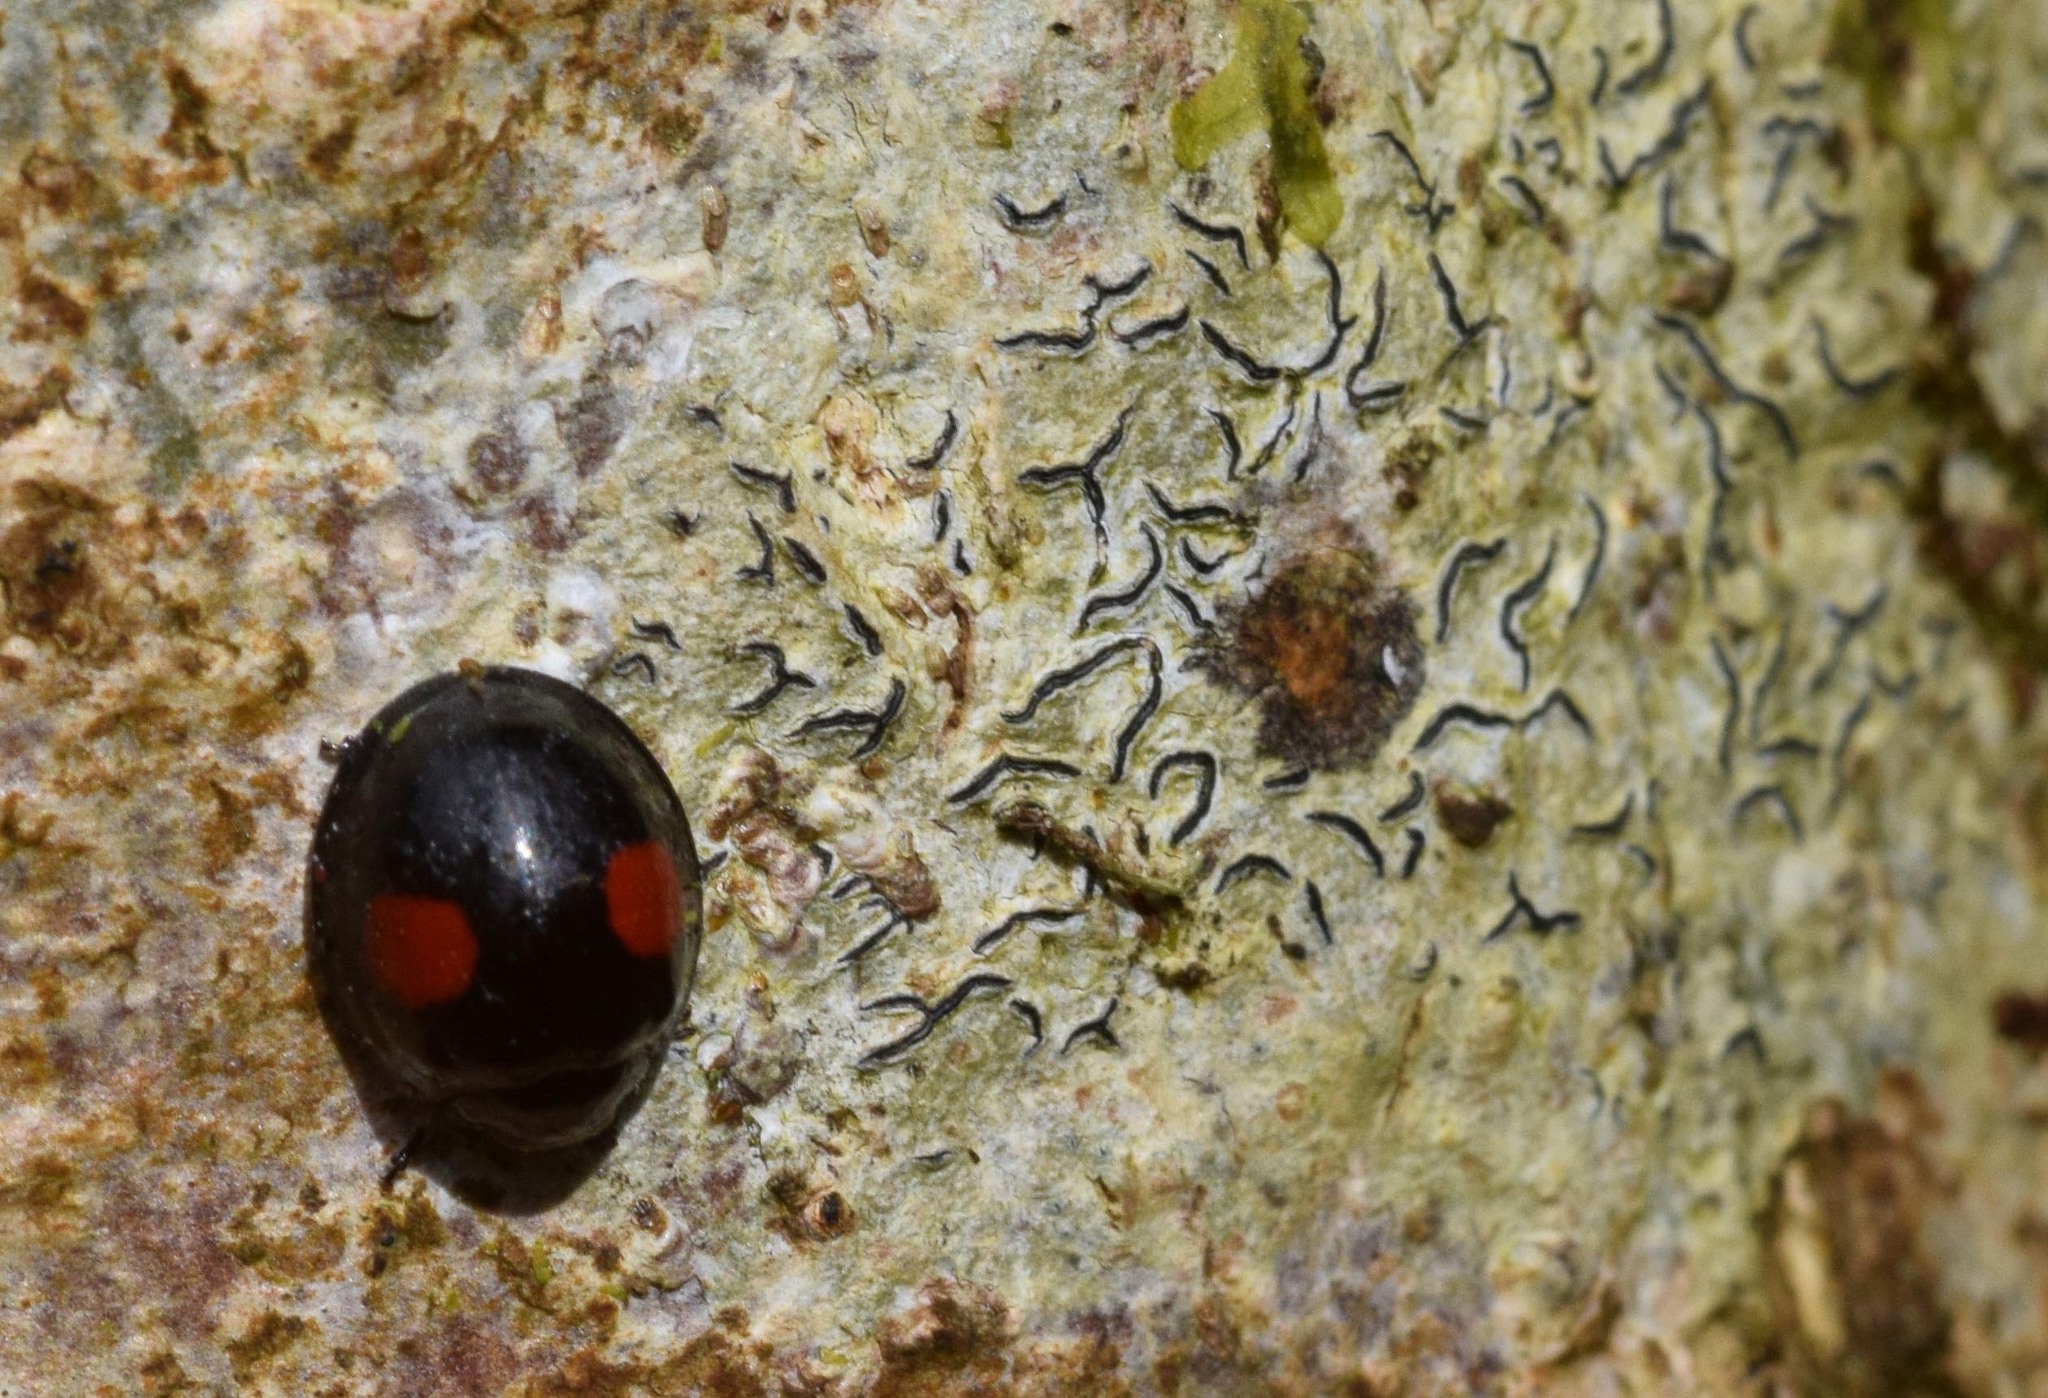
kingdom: Animalia
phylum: Arthropoda
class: Insecta
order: Coleoptera
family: Coccinellidae
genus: Chilocorus
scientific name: Chilocorus renipustulatus
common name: Kidney-spot ladybird
